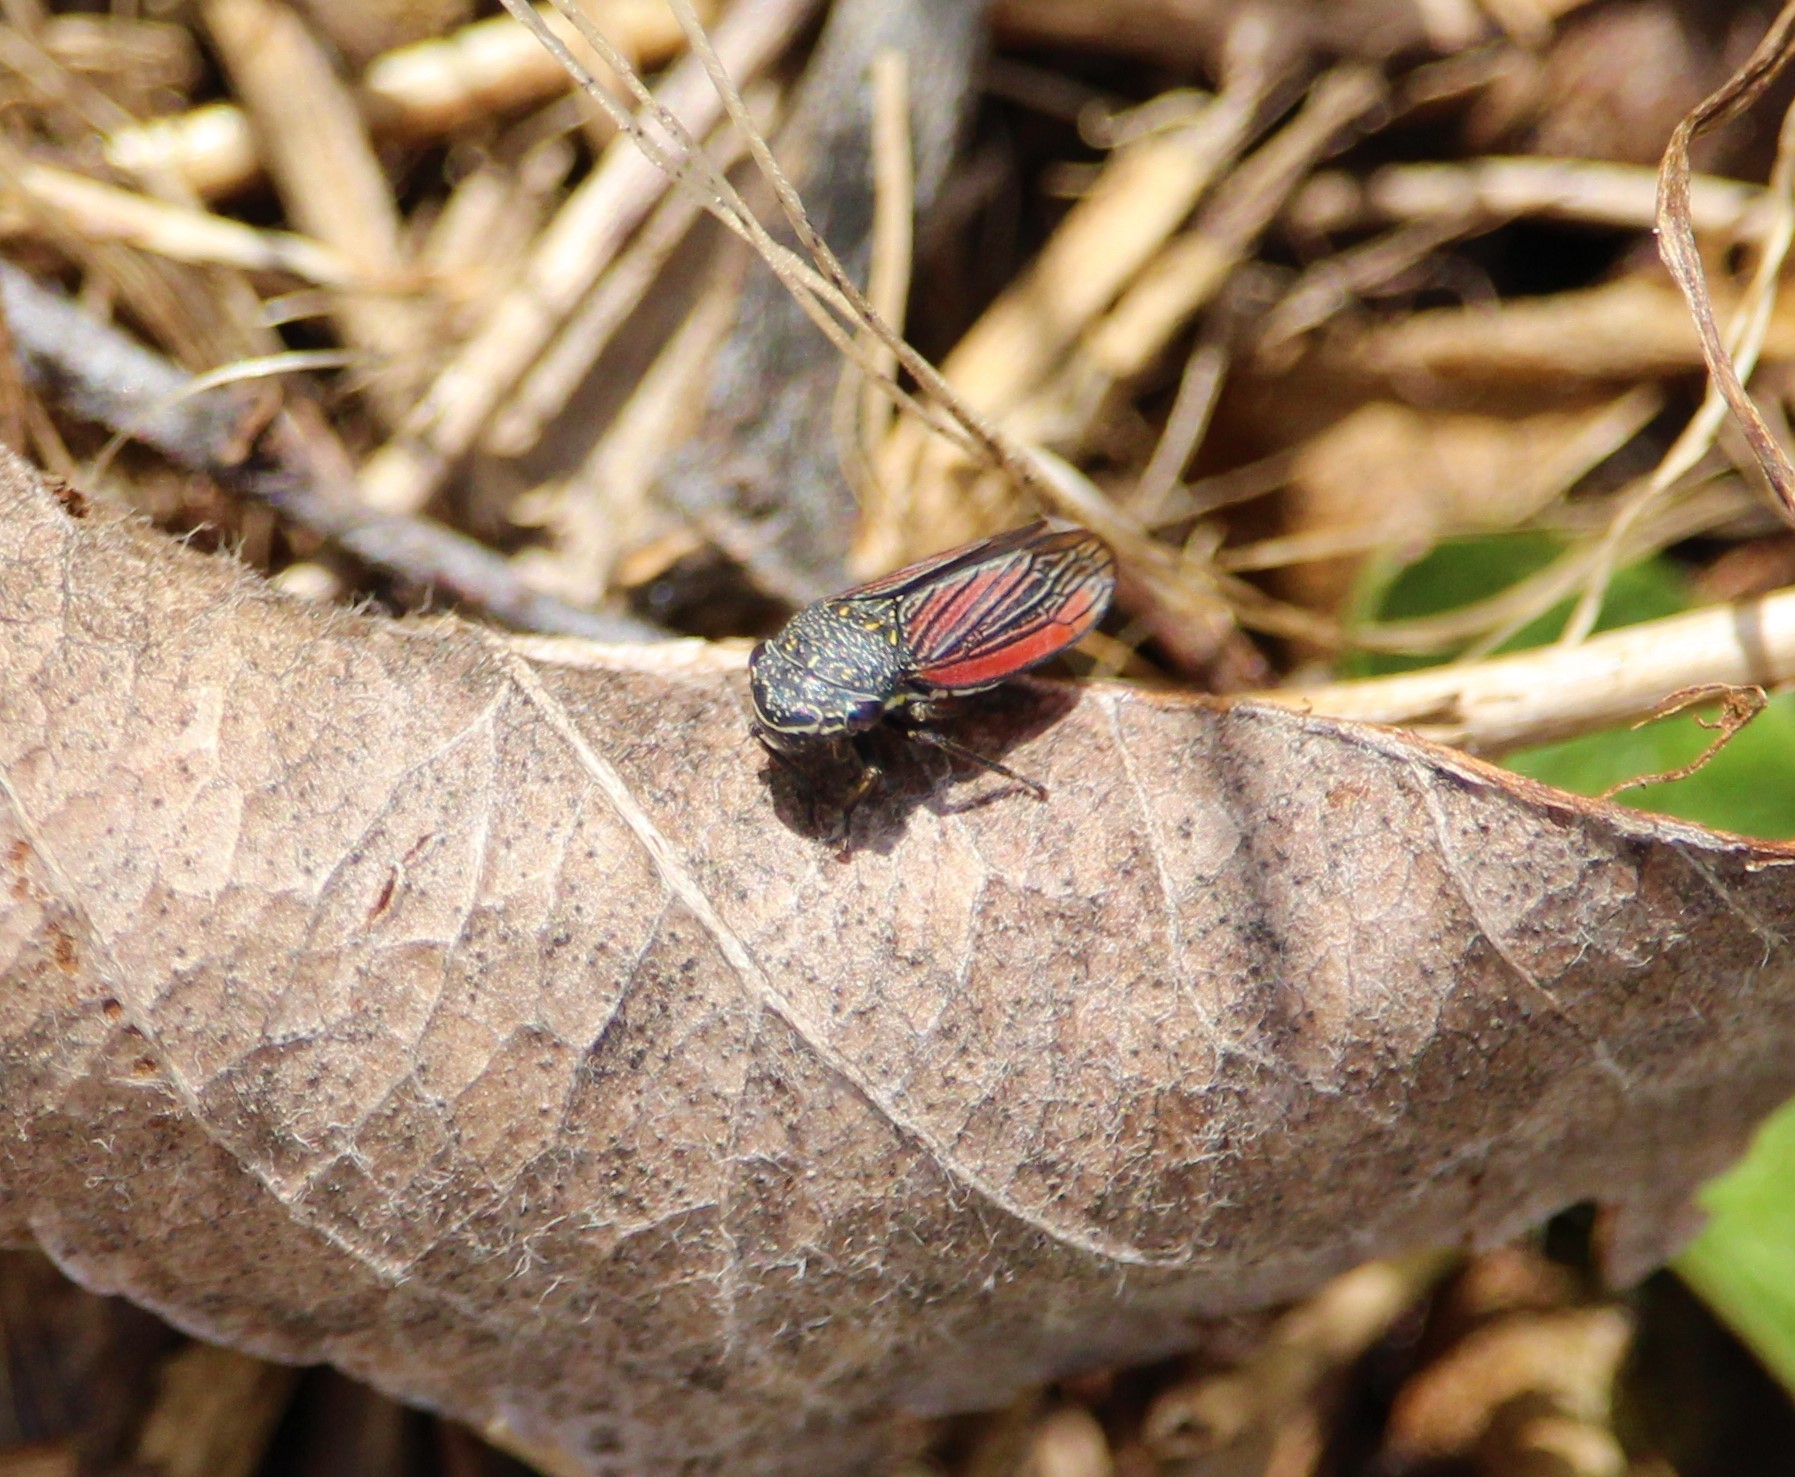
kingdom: Animalia
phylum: Arthropoda
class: Insecta
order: Hemiptera
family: Cicadellidae
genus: Cuerna
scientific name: Cuerna striata
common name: Striped leafhopper
